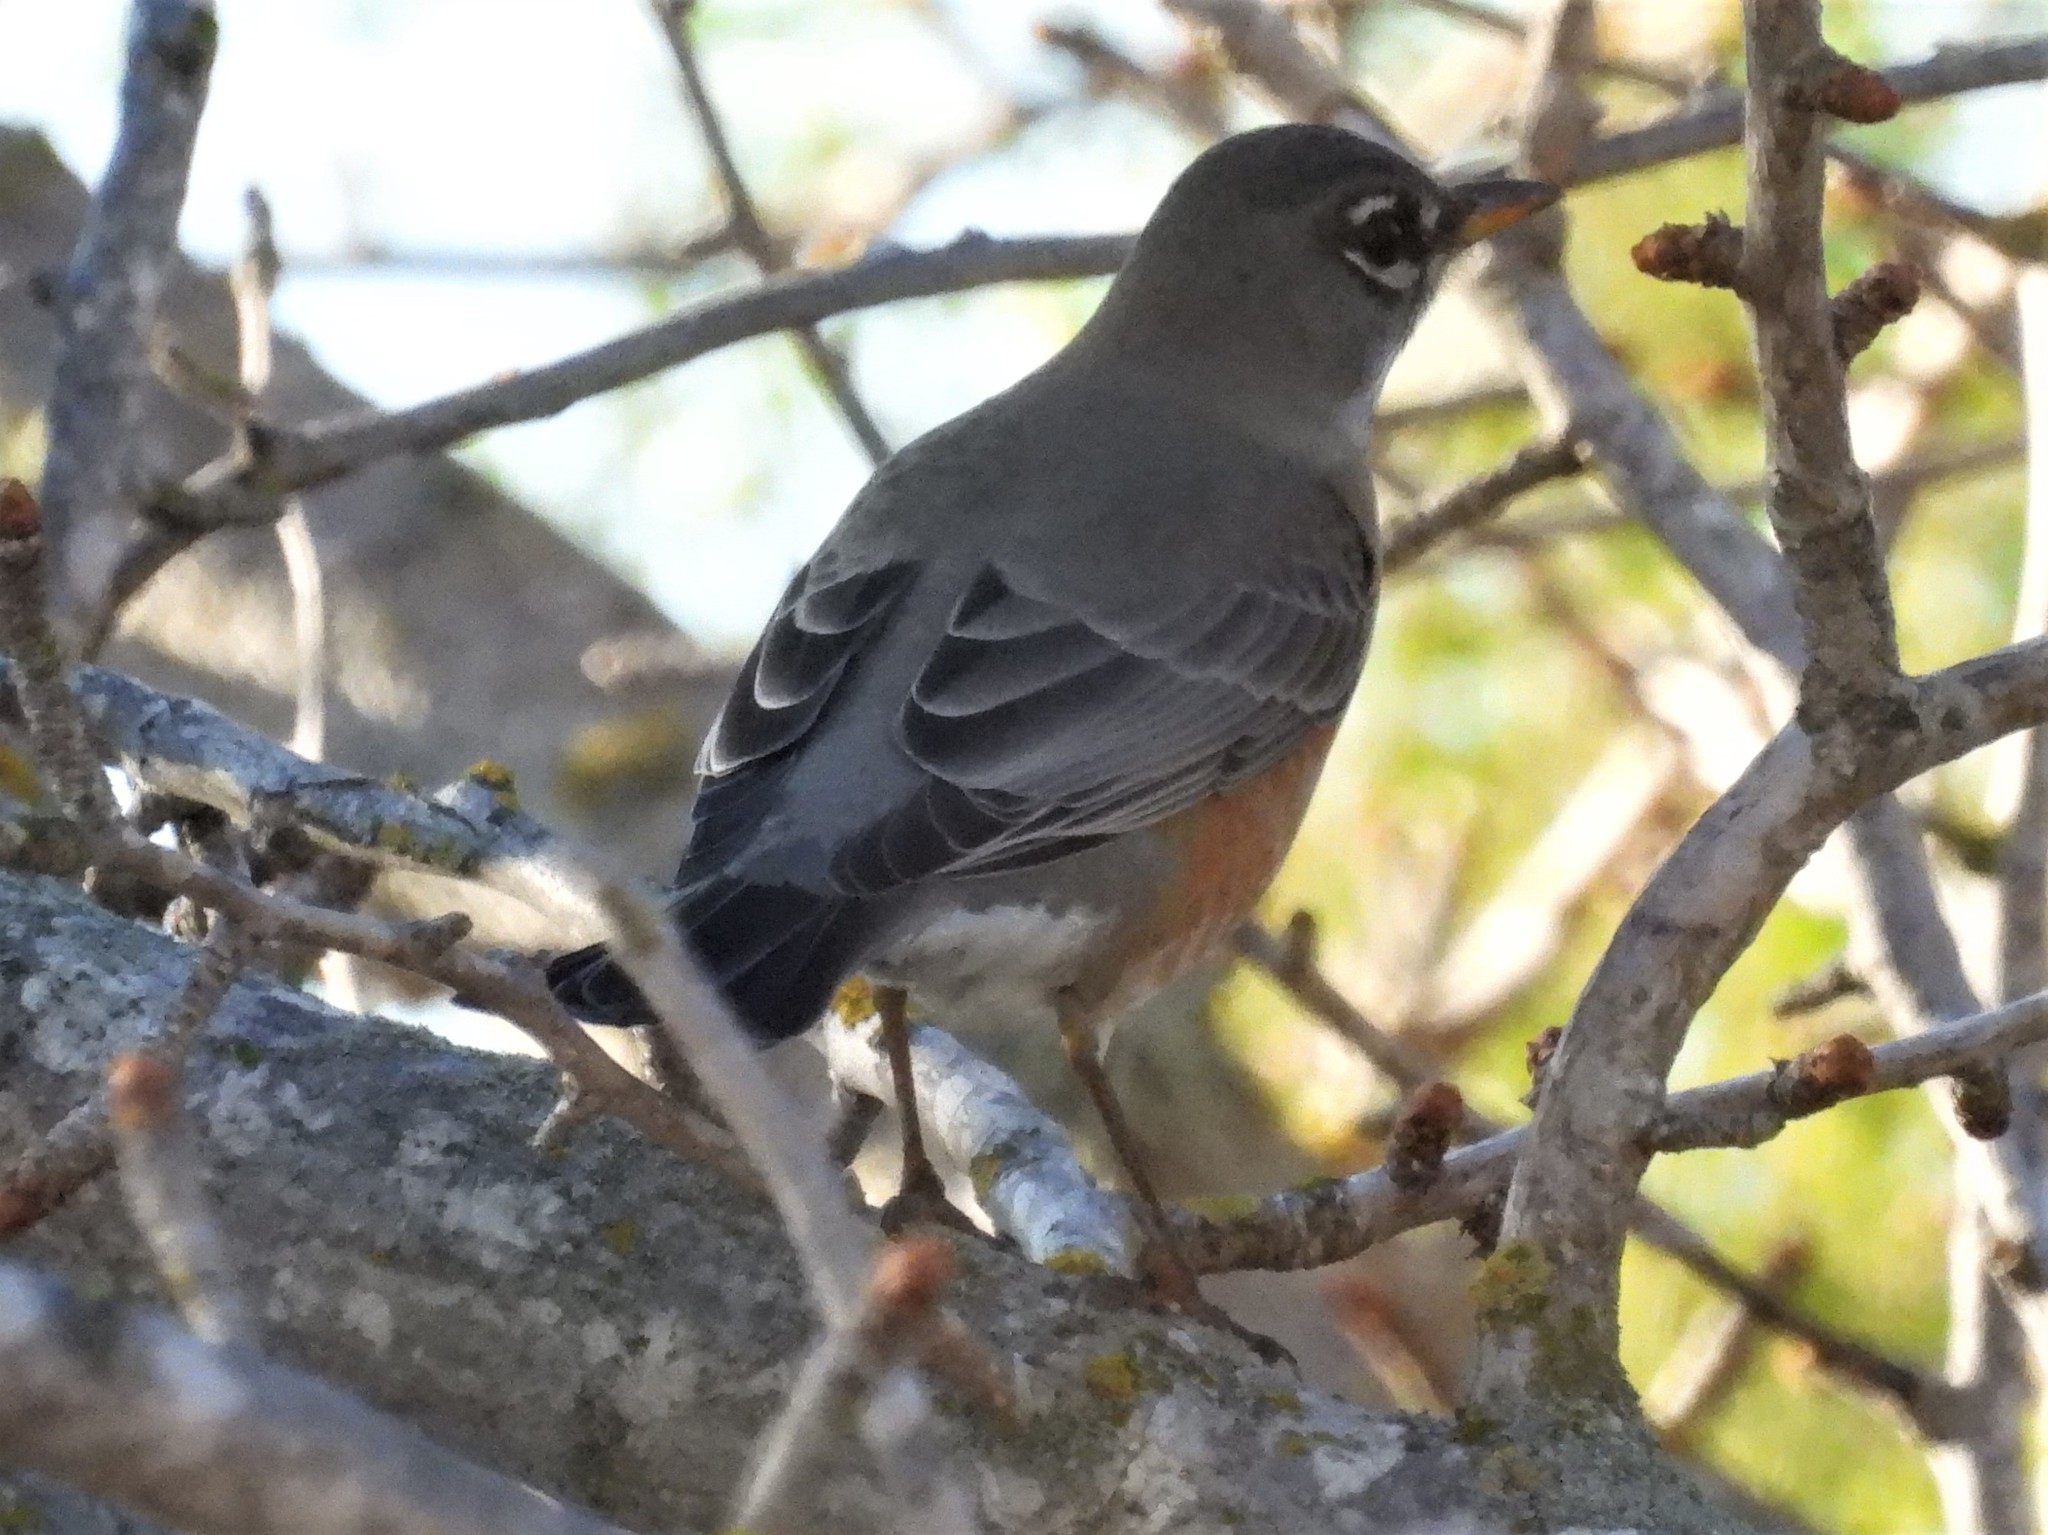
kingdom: Animalia
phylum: Chordata
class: Aves
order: Passeriformes
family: Turdidae
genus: Turdus
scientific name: Turdus migratorius
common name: American robin
